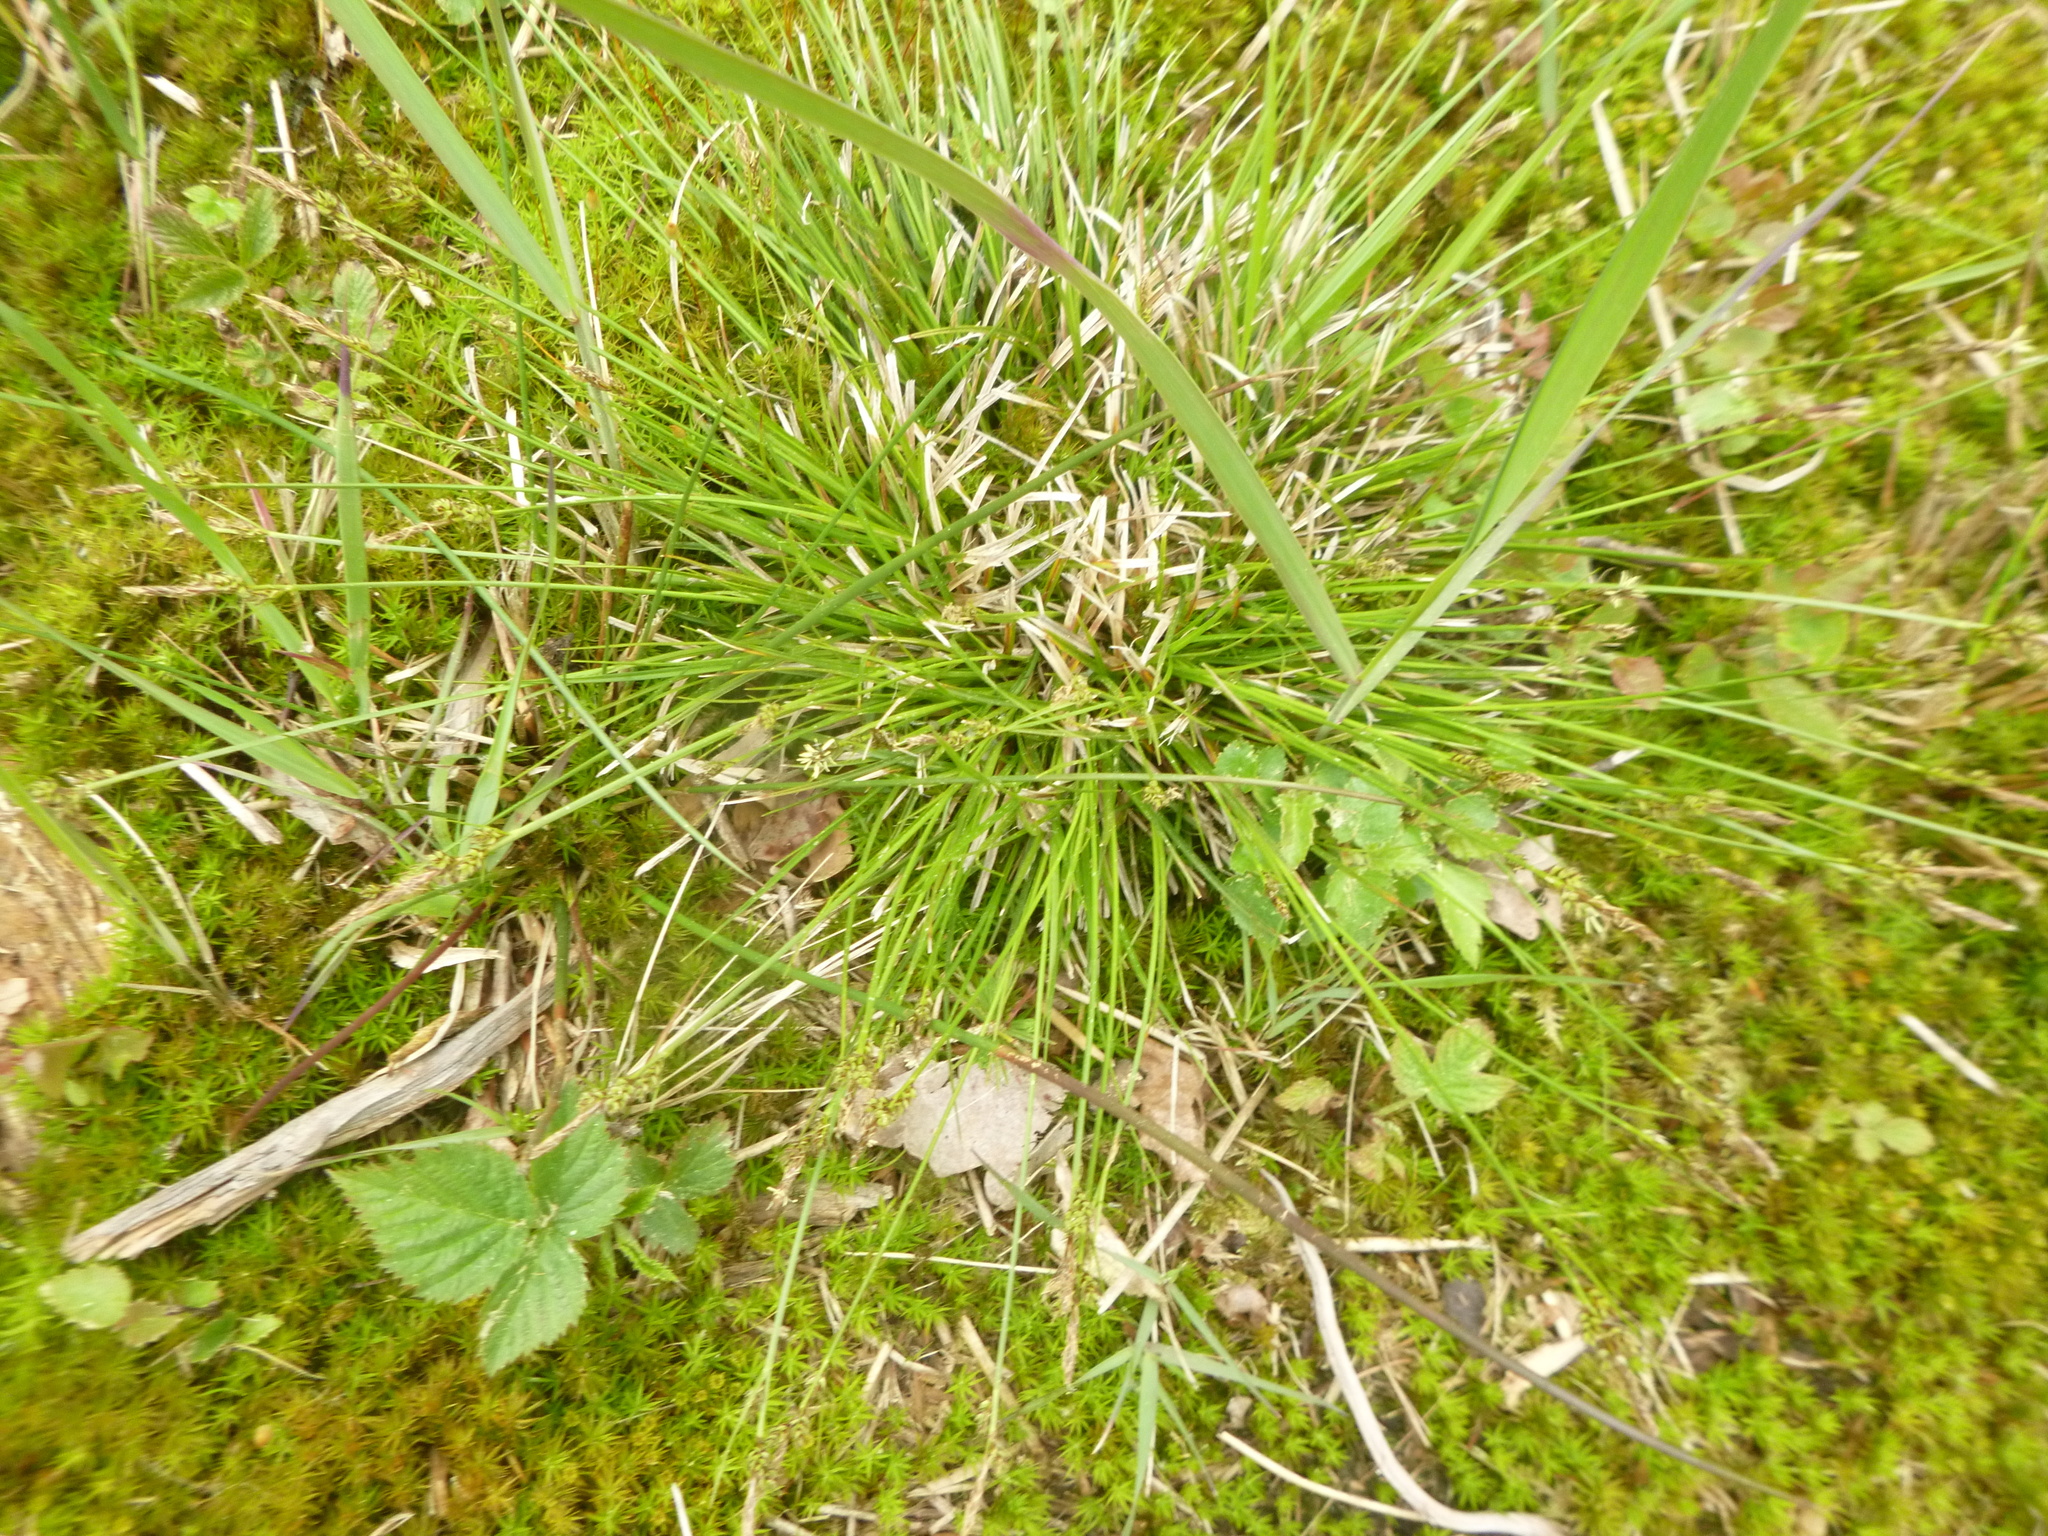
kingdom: Plantae
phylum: Tracheophyta
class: Liliopsida
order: Poales
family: Cyperaceae
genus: Carex
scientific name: Carex pilulifera
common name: Pill sedge
